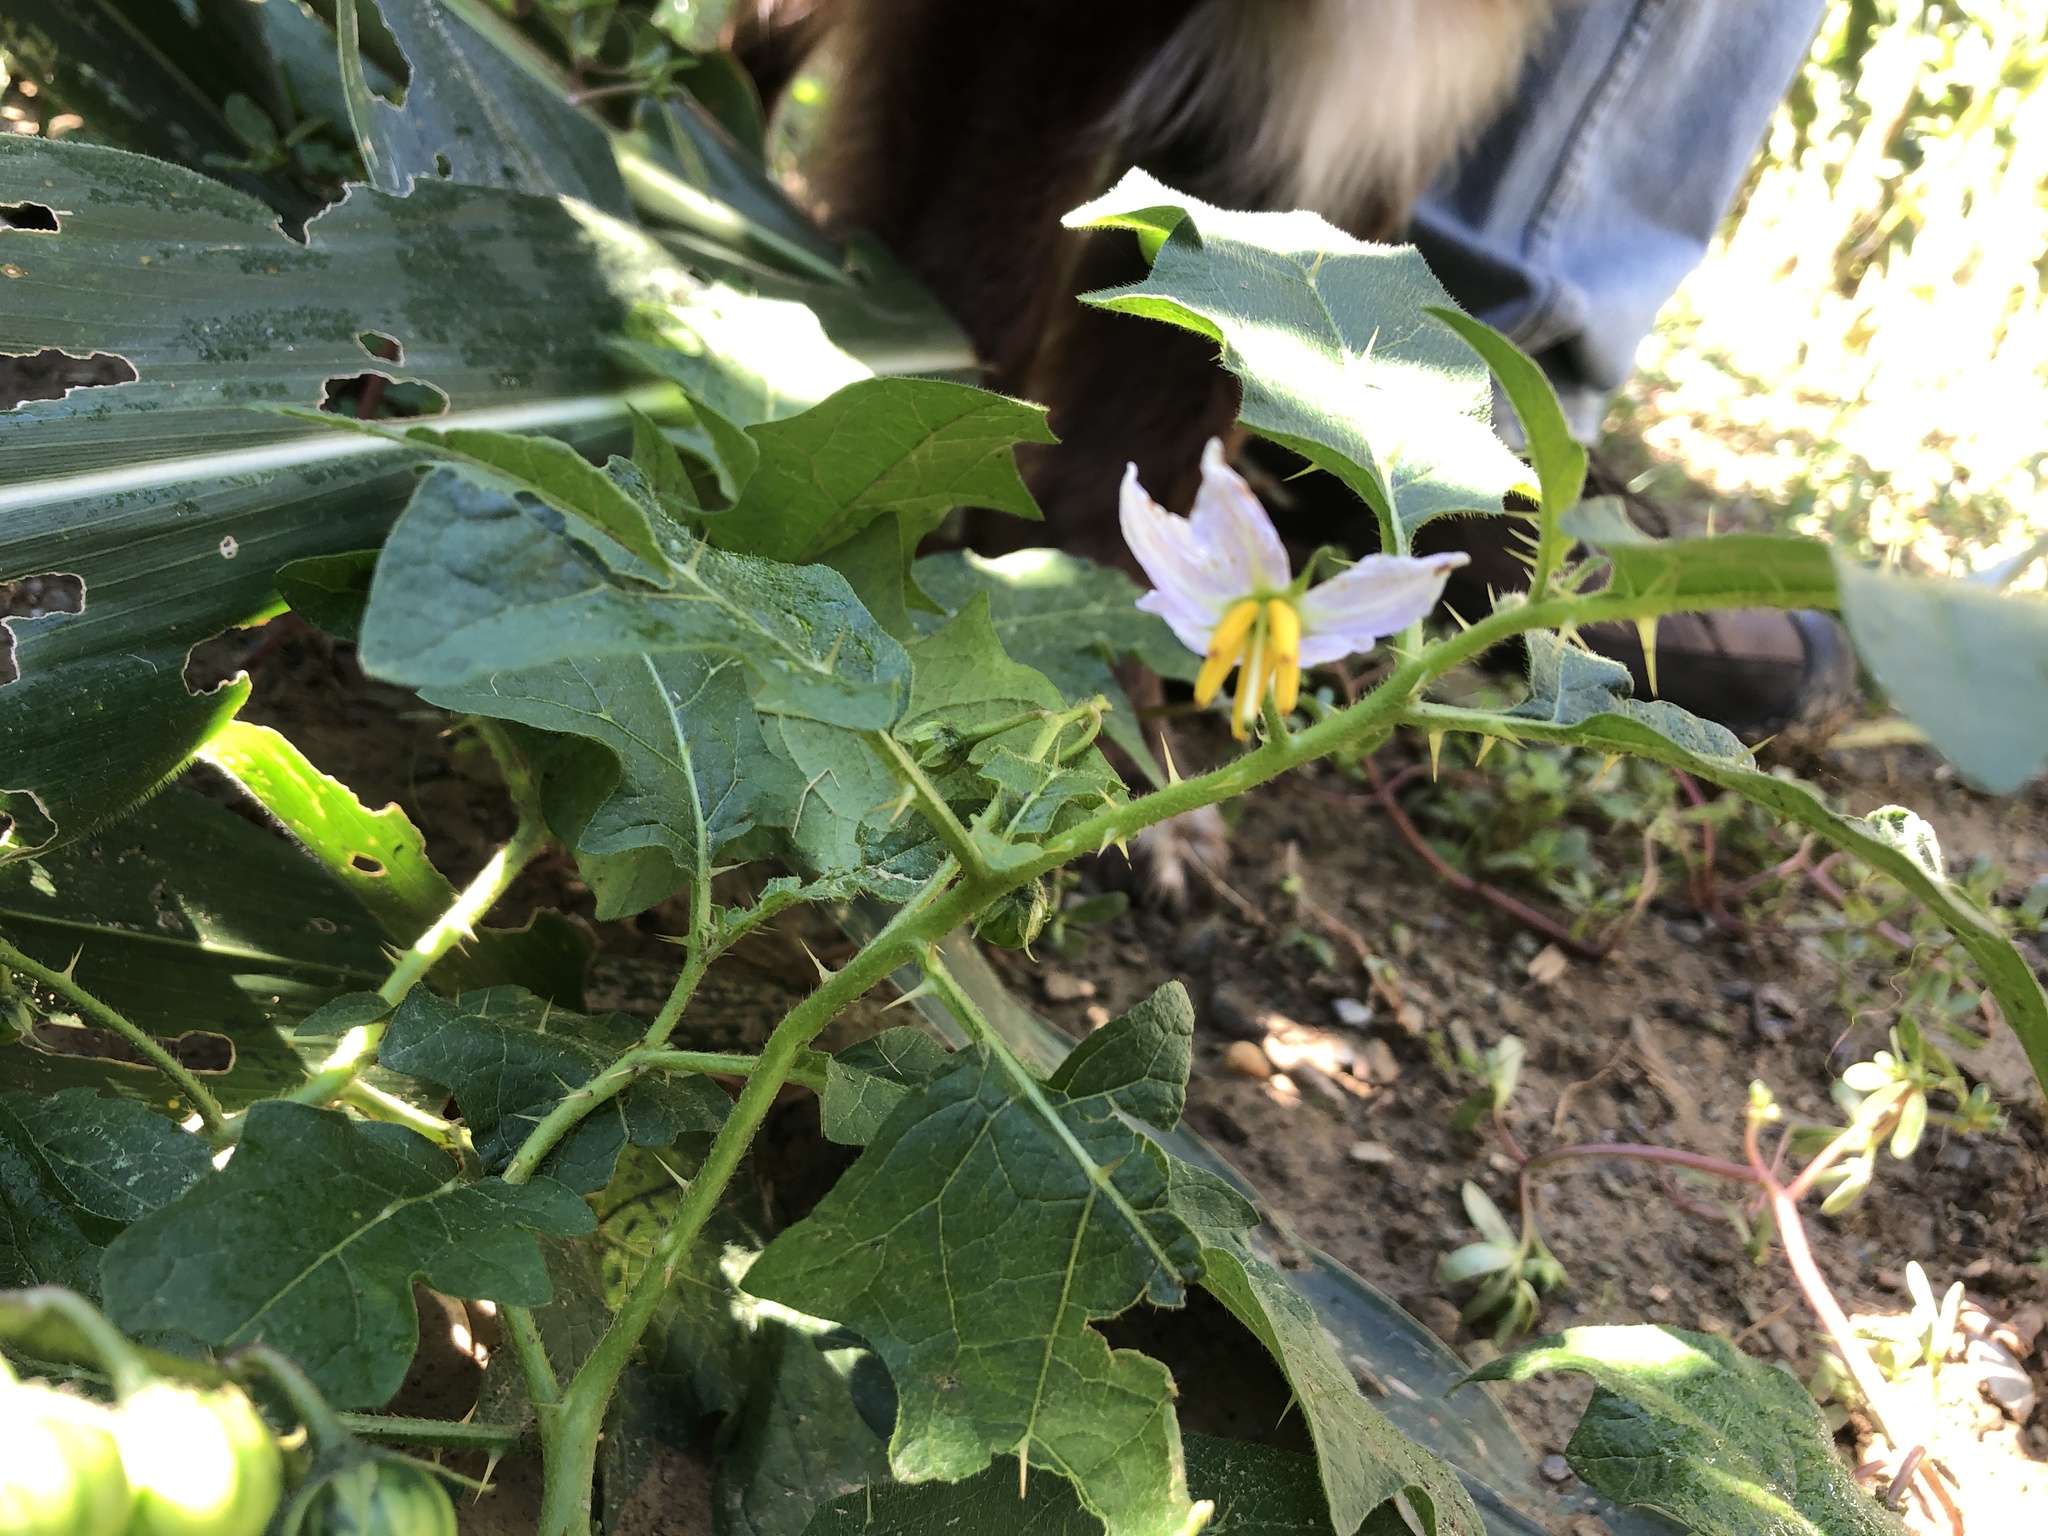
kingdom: Plantae
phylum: Tracheophyta
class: Magnoliopsida
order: Solanales
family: Solanaceae
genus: Solanum
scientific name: Solanum carolinense
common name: Horse-nettle
